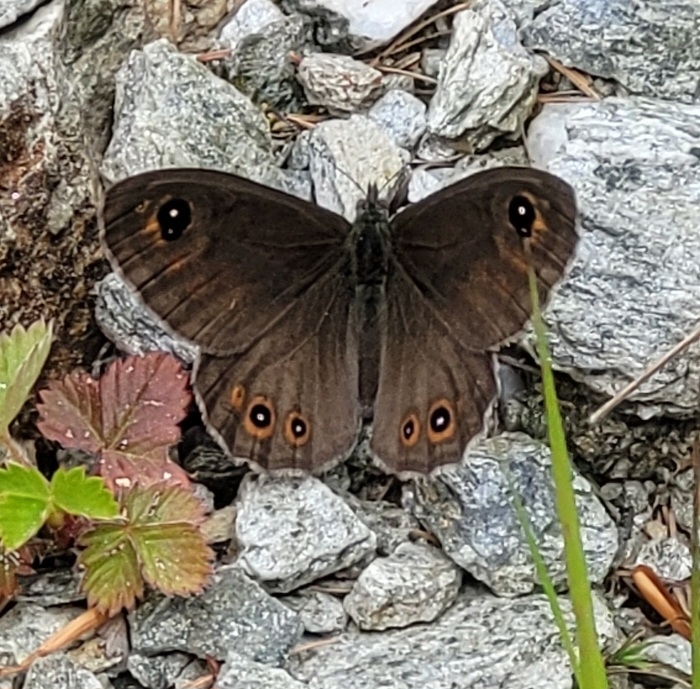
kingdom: Animalia
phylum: Arthropoda
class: Insecta
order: Lepidoptera
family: Nymphalidae
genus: Pararge
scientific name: Pararge Lasiommata maera
